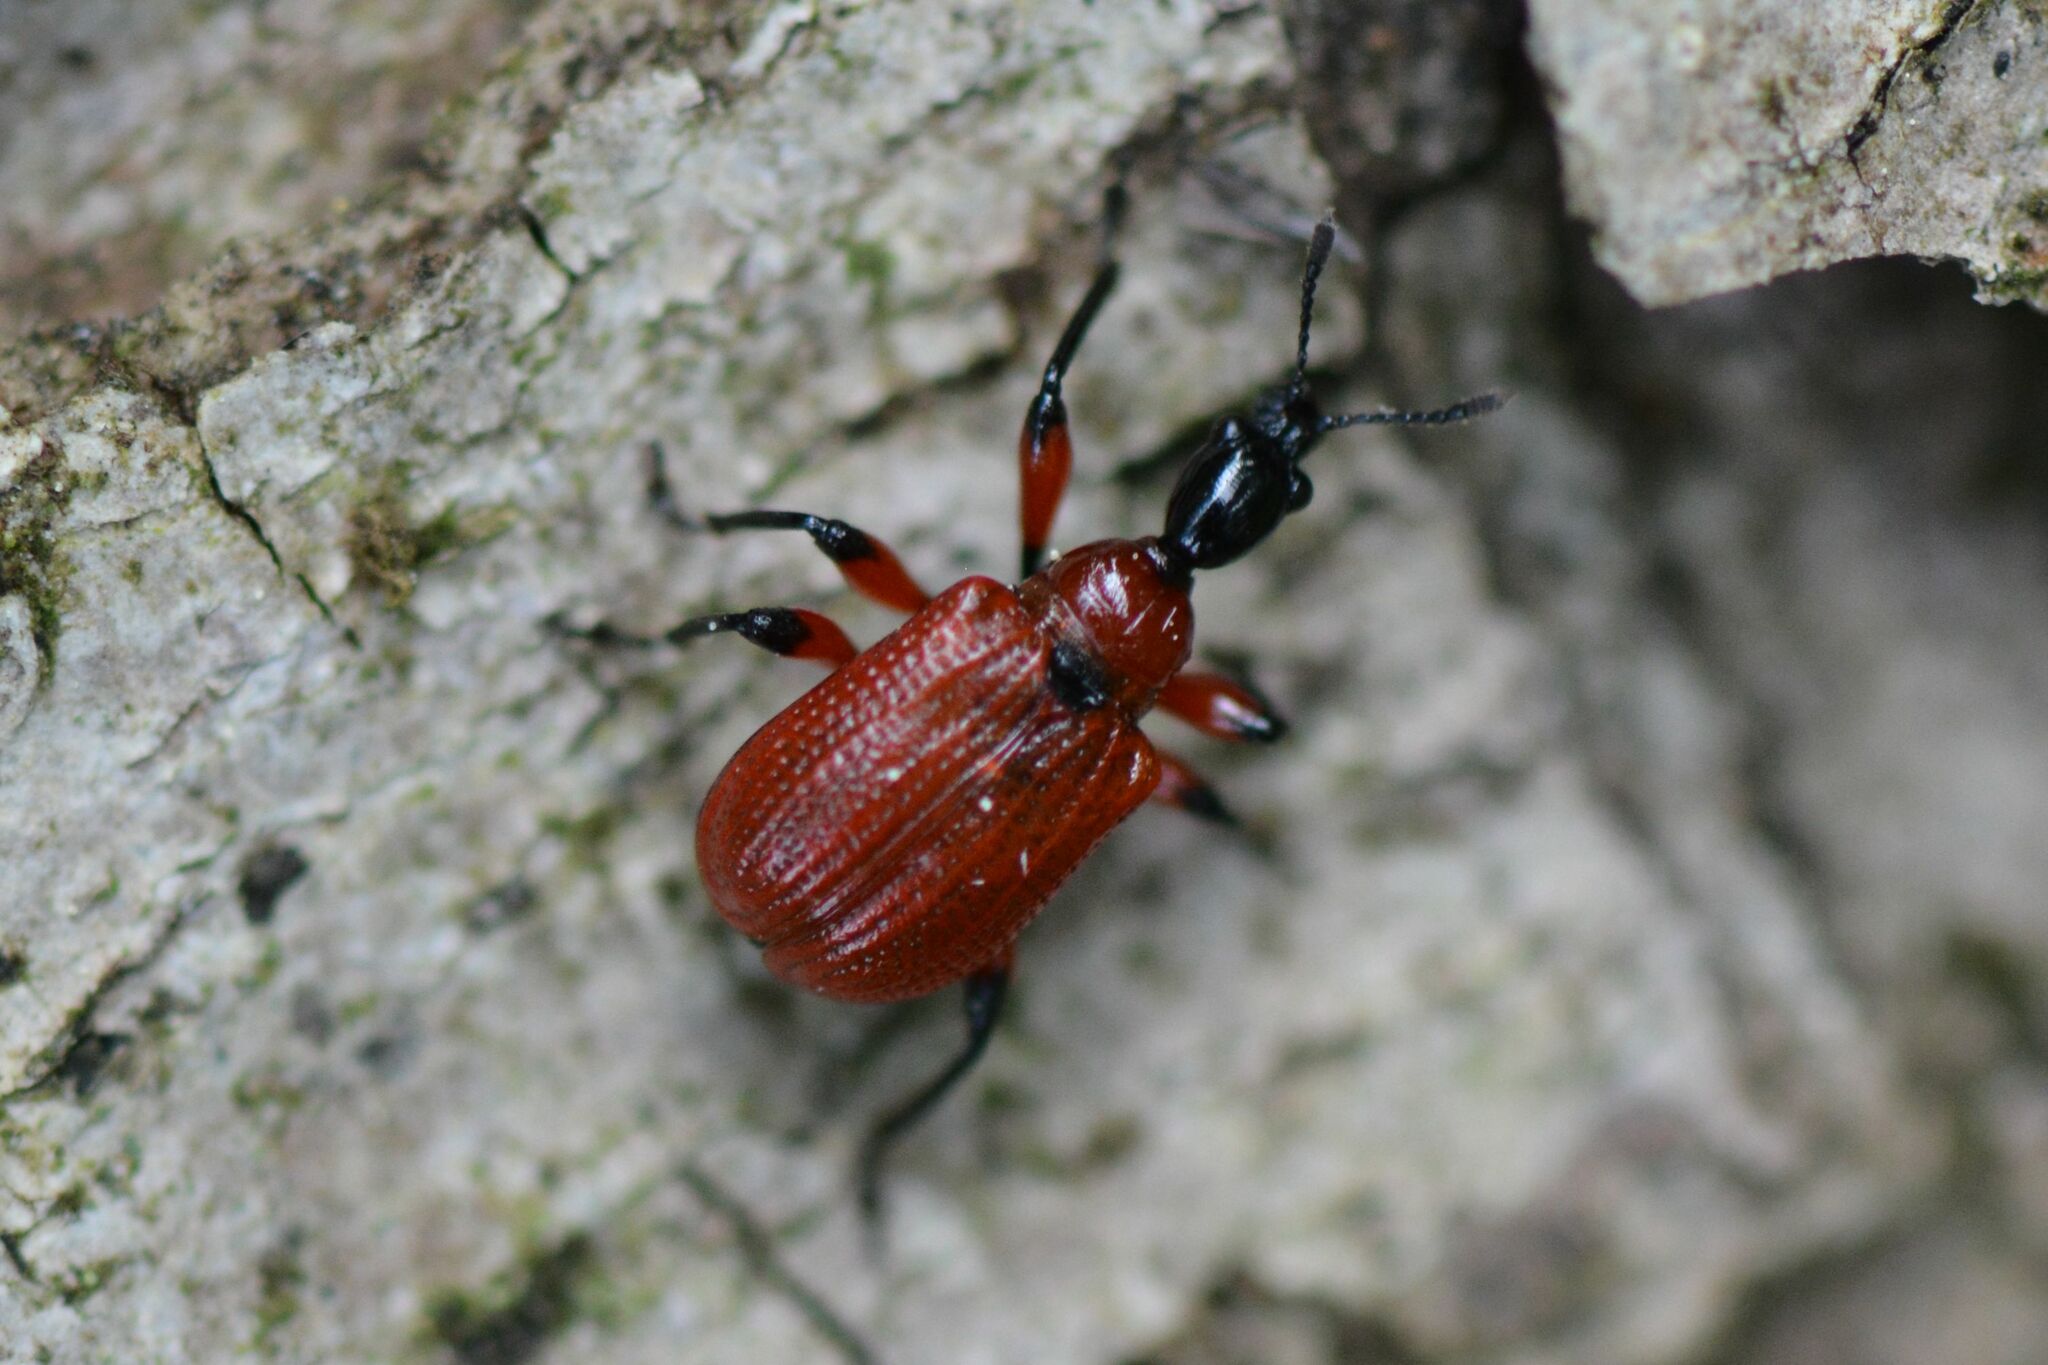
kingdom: Animalia
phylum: Arthropoda
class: Insecta
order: Coleoptera
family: Attelabidae
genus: Apoderus
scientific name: Apoderus coryli
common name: Hazel leaf roller
